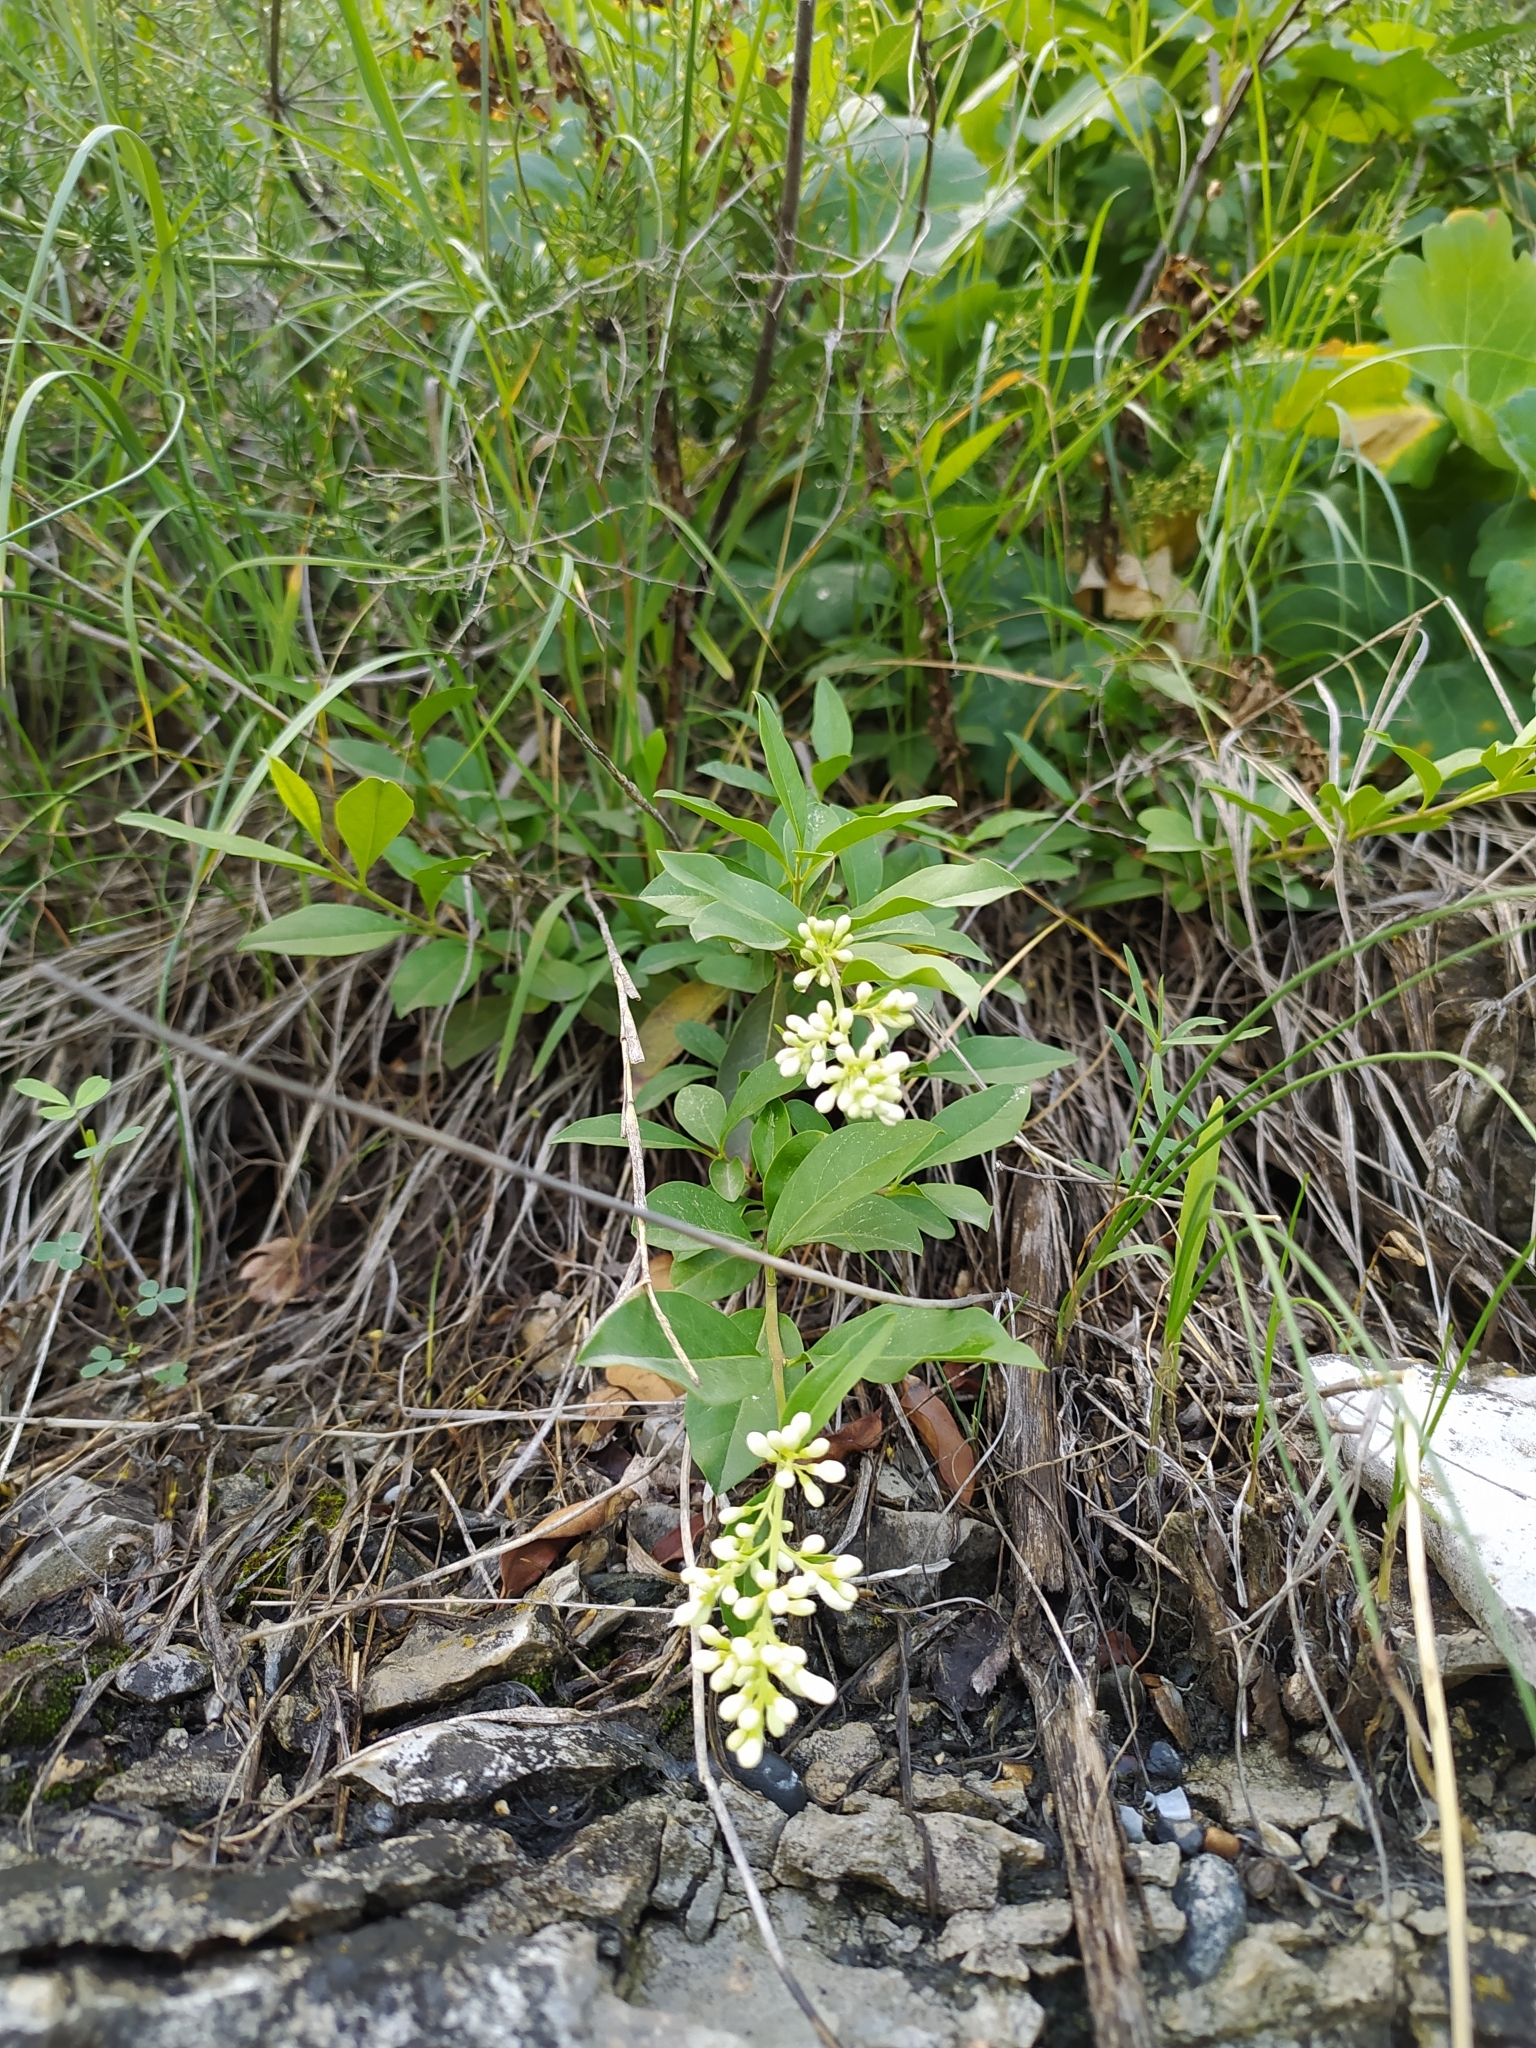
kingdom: Plantae
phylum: Tracheophyta
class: Magnoliopsida
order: Lamiales
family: Oleaceae
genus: Ligustrum
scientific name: Ligustrum vulgare
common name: Wild privet
